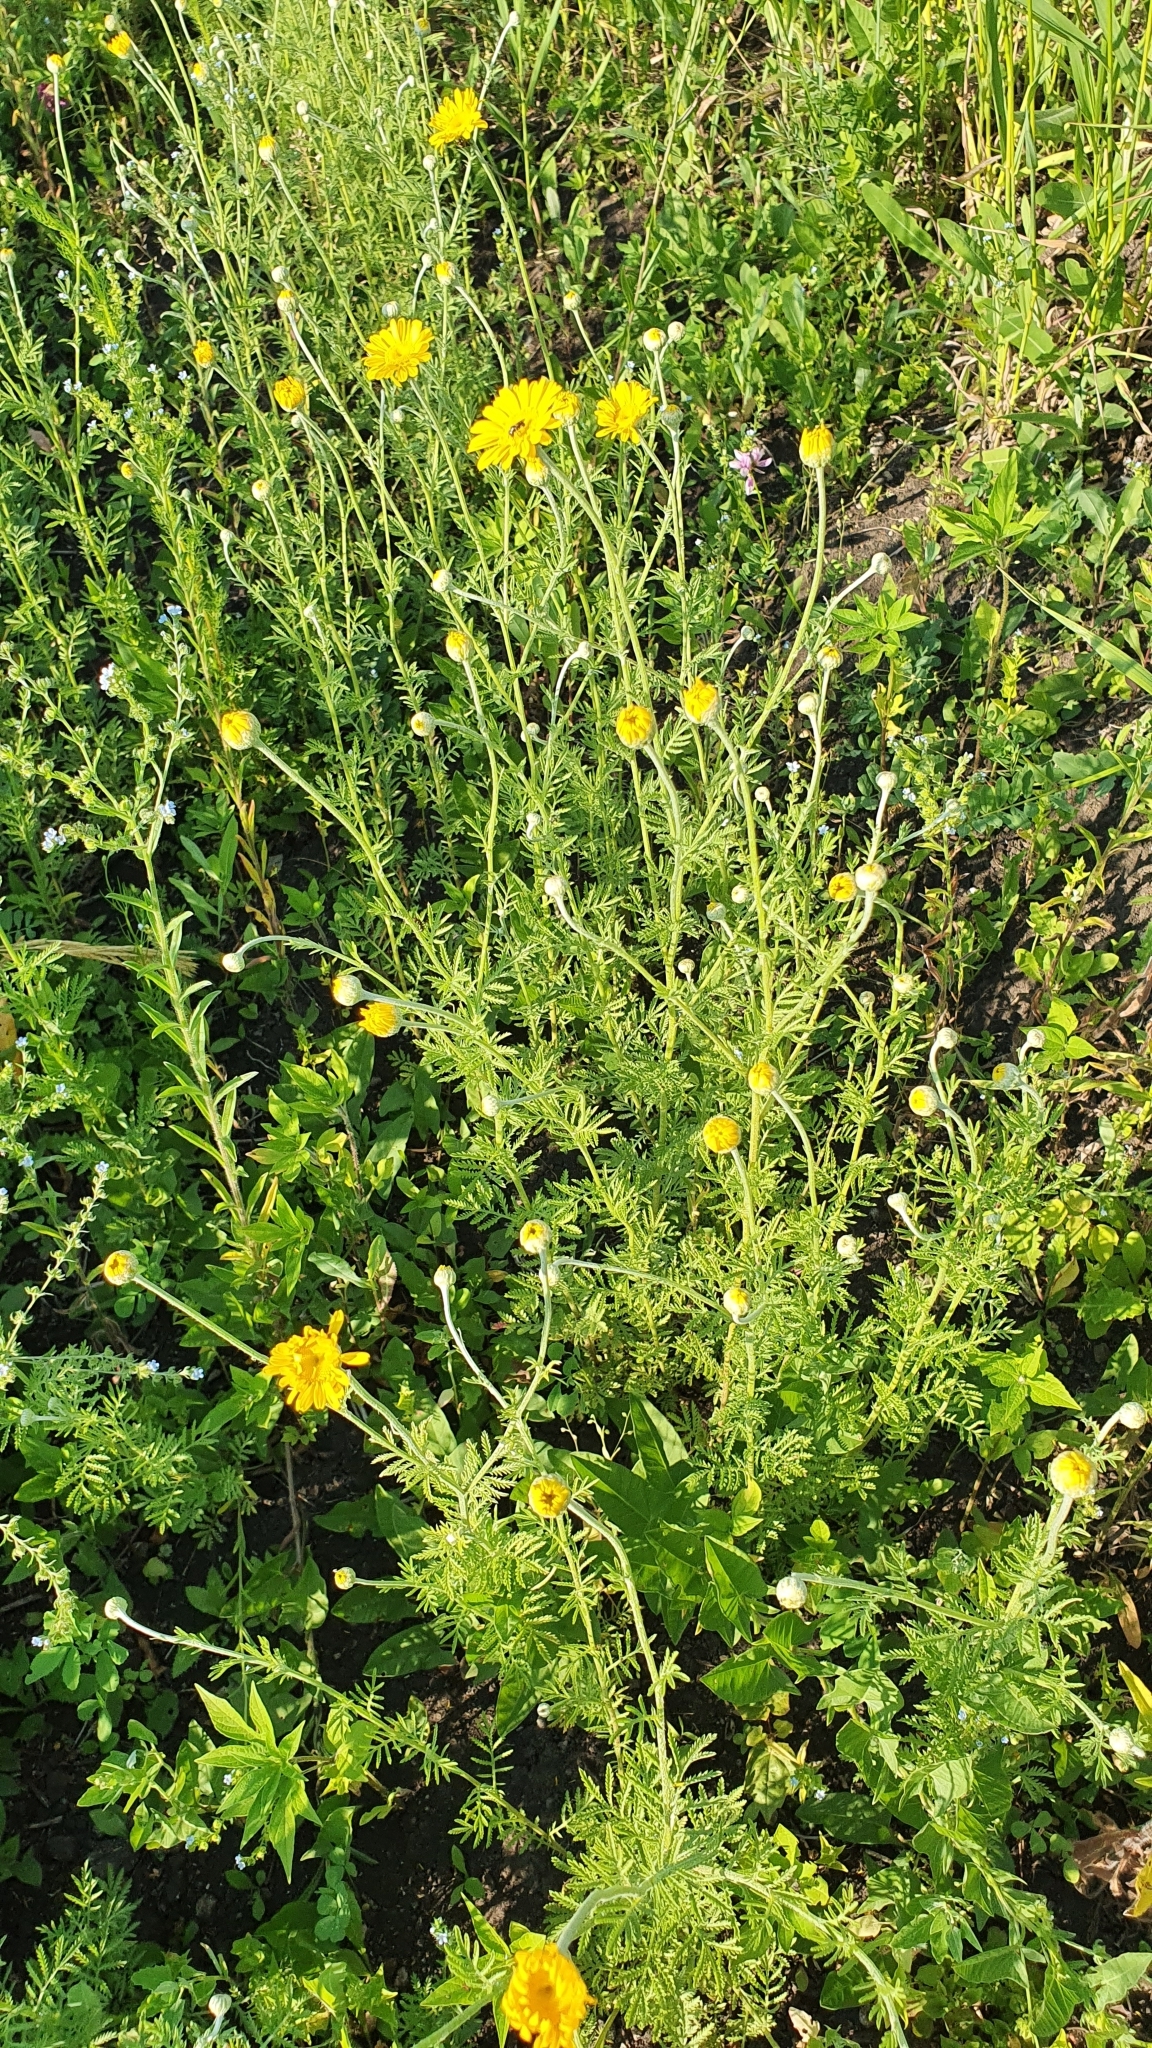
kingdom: Plantae
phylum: Tracheophyta
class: Magnoliopsida
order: Asterales
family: Asteraceae
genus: Cota
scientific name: Cota tinctoria
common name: Golden chamomile
